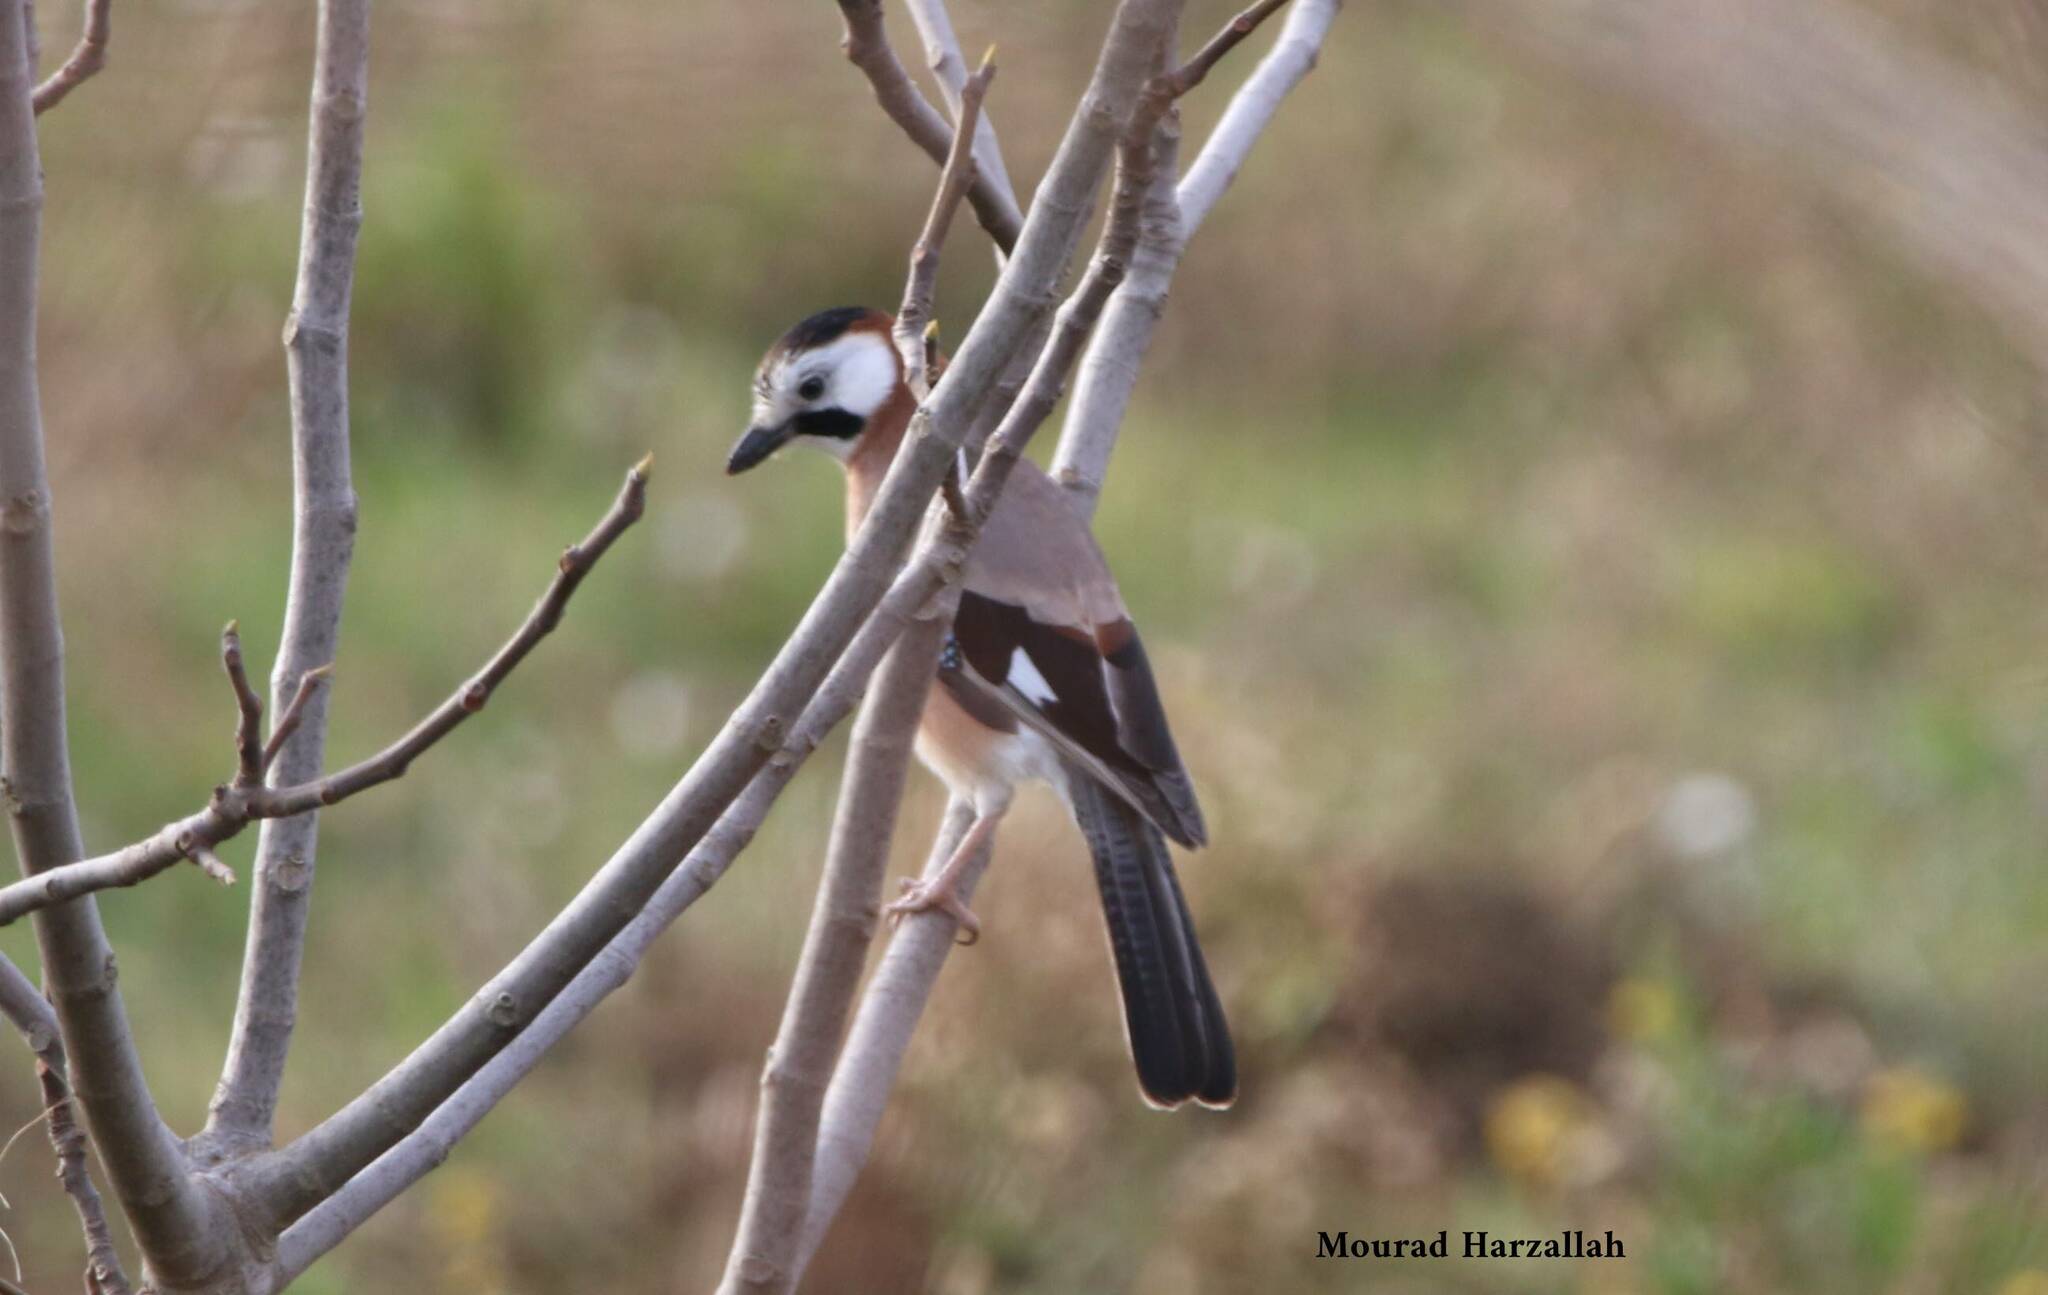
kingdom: Animalia
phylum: Chordata
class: Aves
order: Passeriformes
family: Corvidae
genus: Garrulus
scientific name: Garrulus glandarius
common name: Eurasian jay
